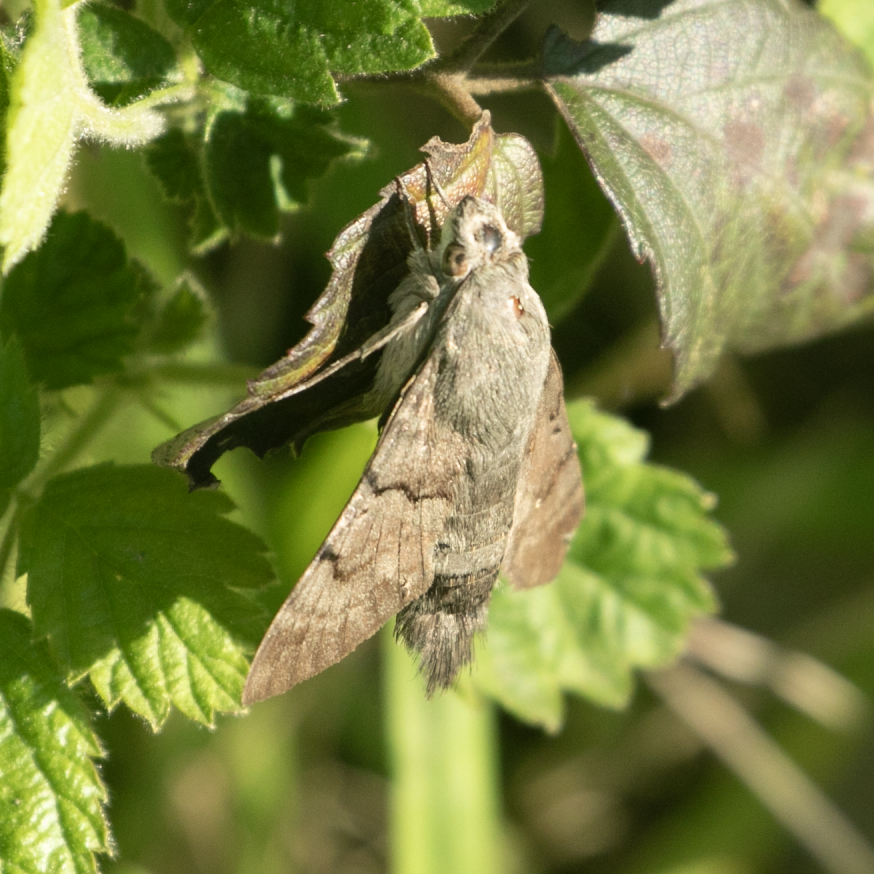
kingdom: Animalia
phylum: Arthropoda
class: Insecta
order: Lepidoptera
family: Sphingidae
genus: Macroglossum
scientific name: Macroglossum stellatarum
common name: Humming-bird hawk-moth
